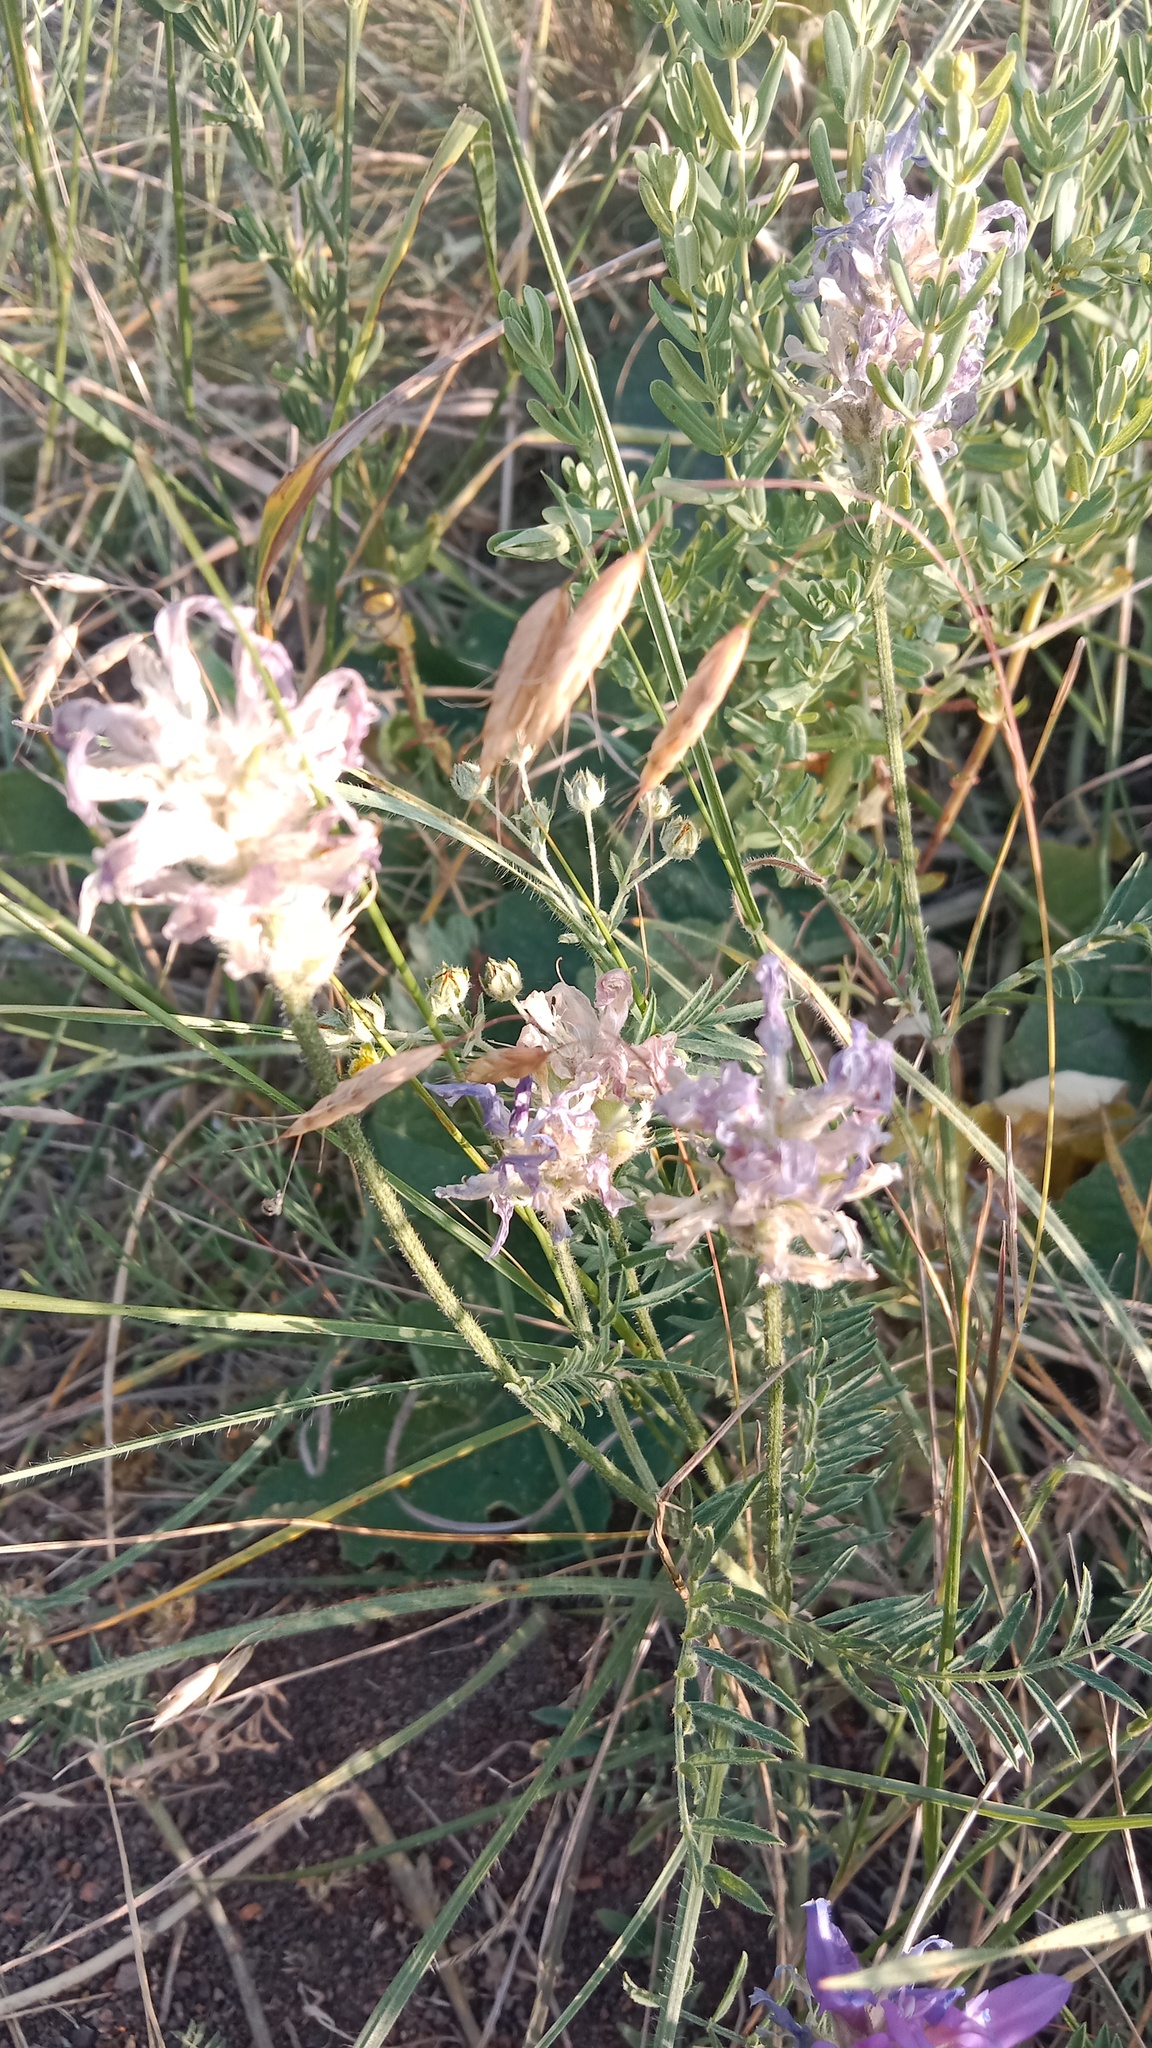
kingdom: Plantae
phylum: Tracheophyta
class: Magnoliopsida
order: Fabales
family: Fabaceae
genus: Astragalus
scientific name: Astragalus onobrychis
